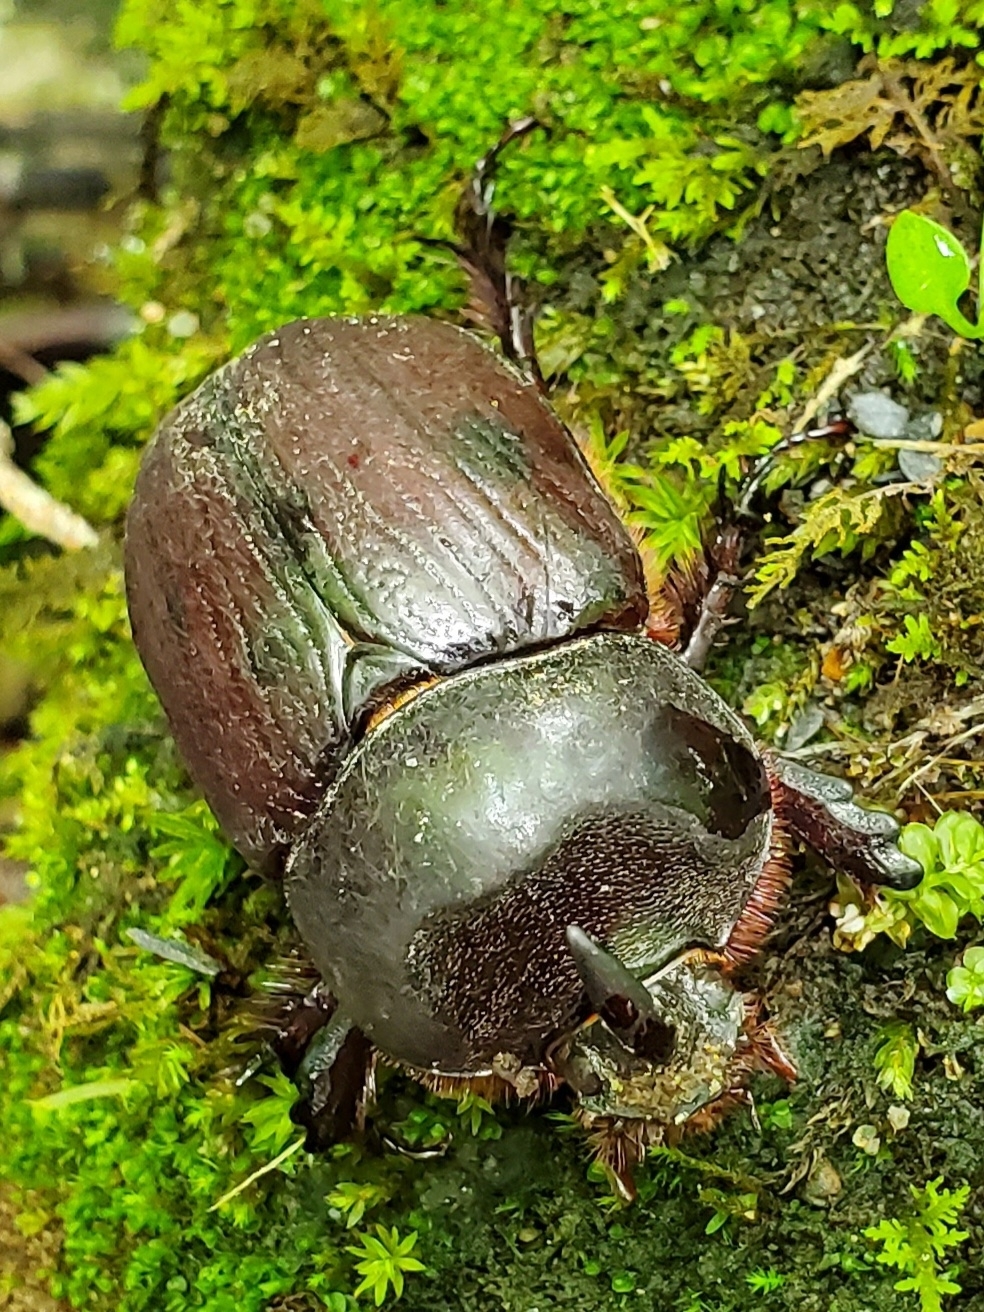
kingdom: Animalia
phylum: Arthropoda
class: Insecta
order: Coleoptera
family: Scarabaeidae
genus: Xyloryctes
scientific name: Xyloryctes jamaicensis
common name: Eastern rhinoceros beetle
